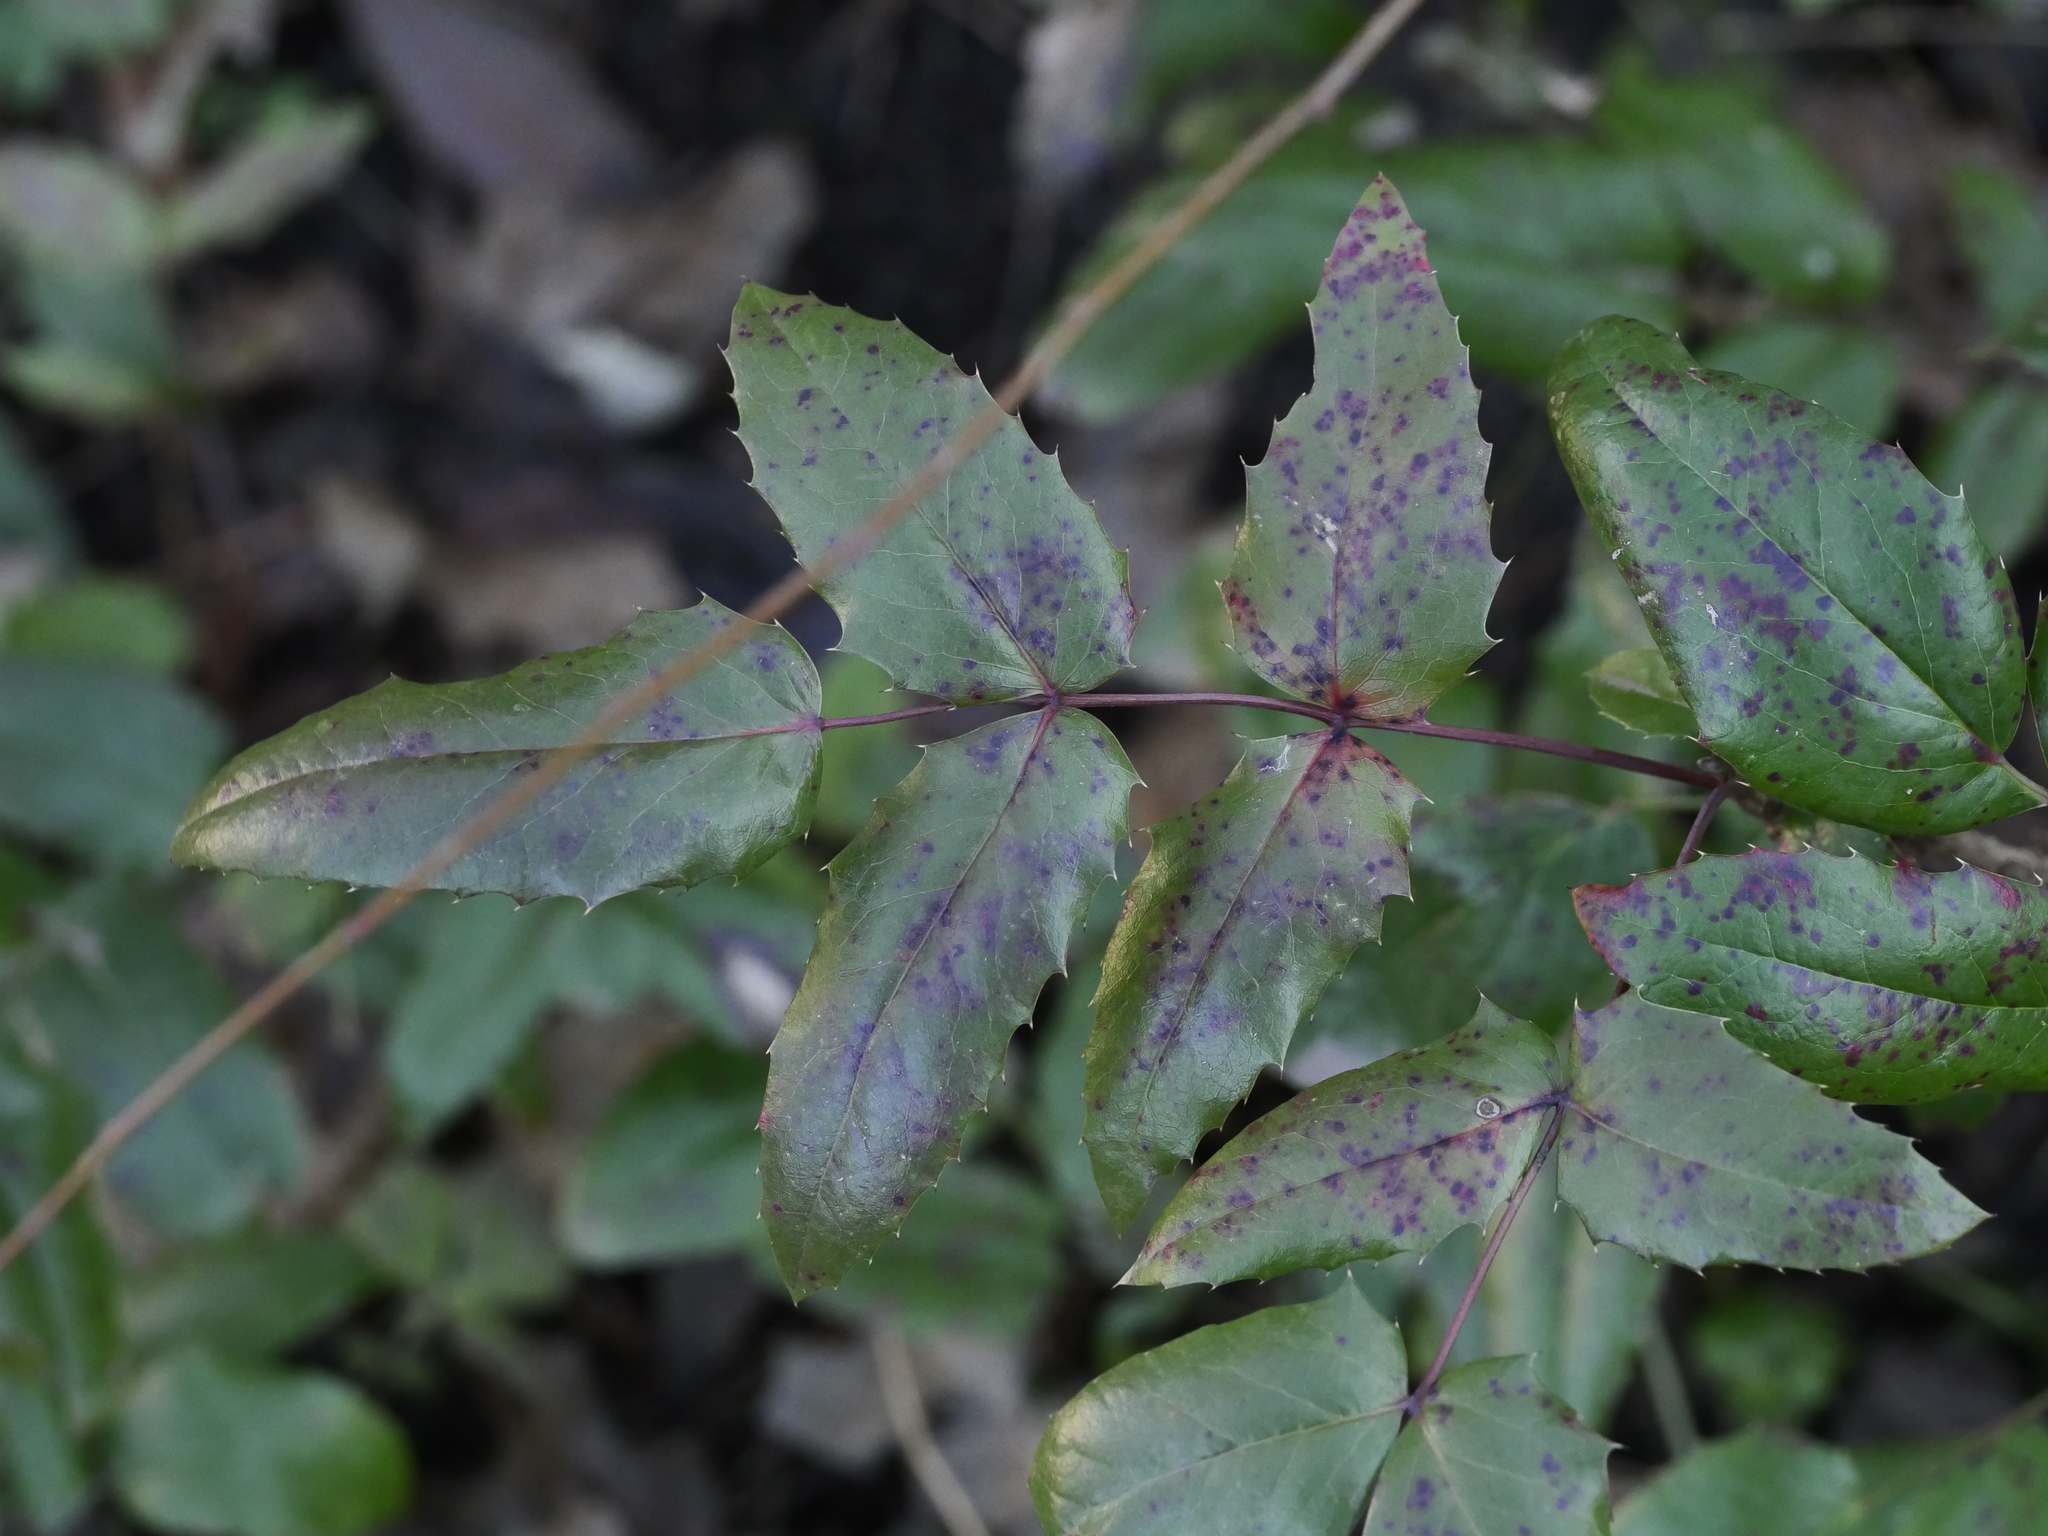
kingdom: Plantae
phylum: Tracheophyta
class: Magnoliopsida
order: Ranunculales
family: Berberidaceae
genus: Mahonia
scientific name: Mahonia aquifolium
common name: Oregon-grape
